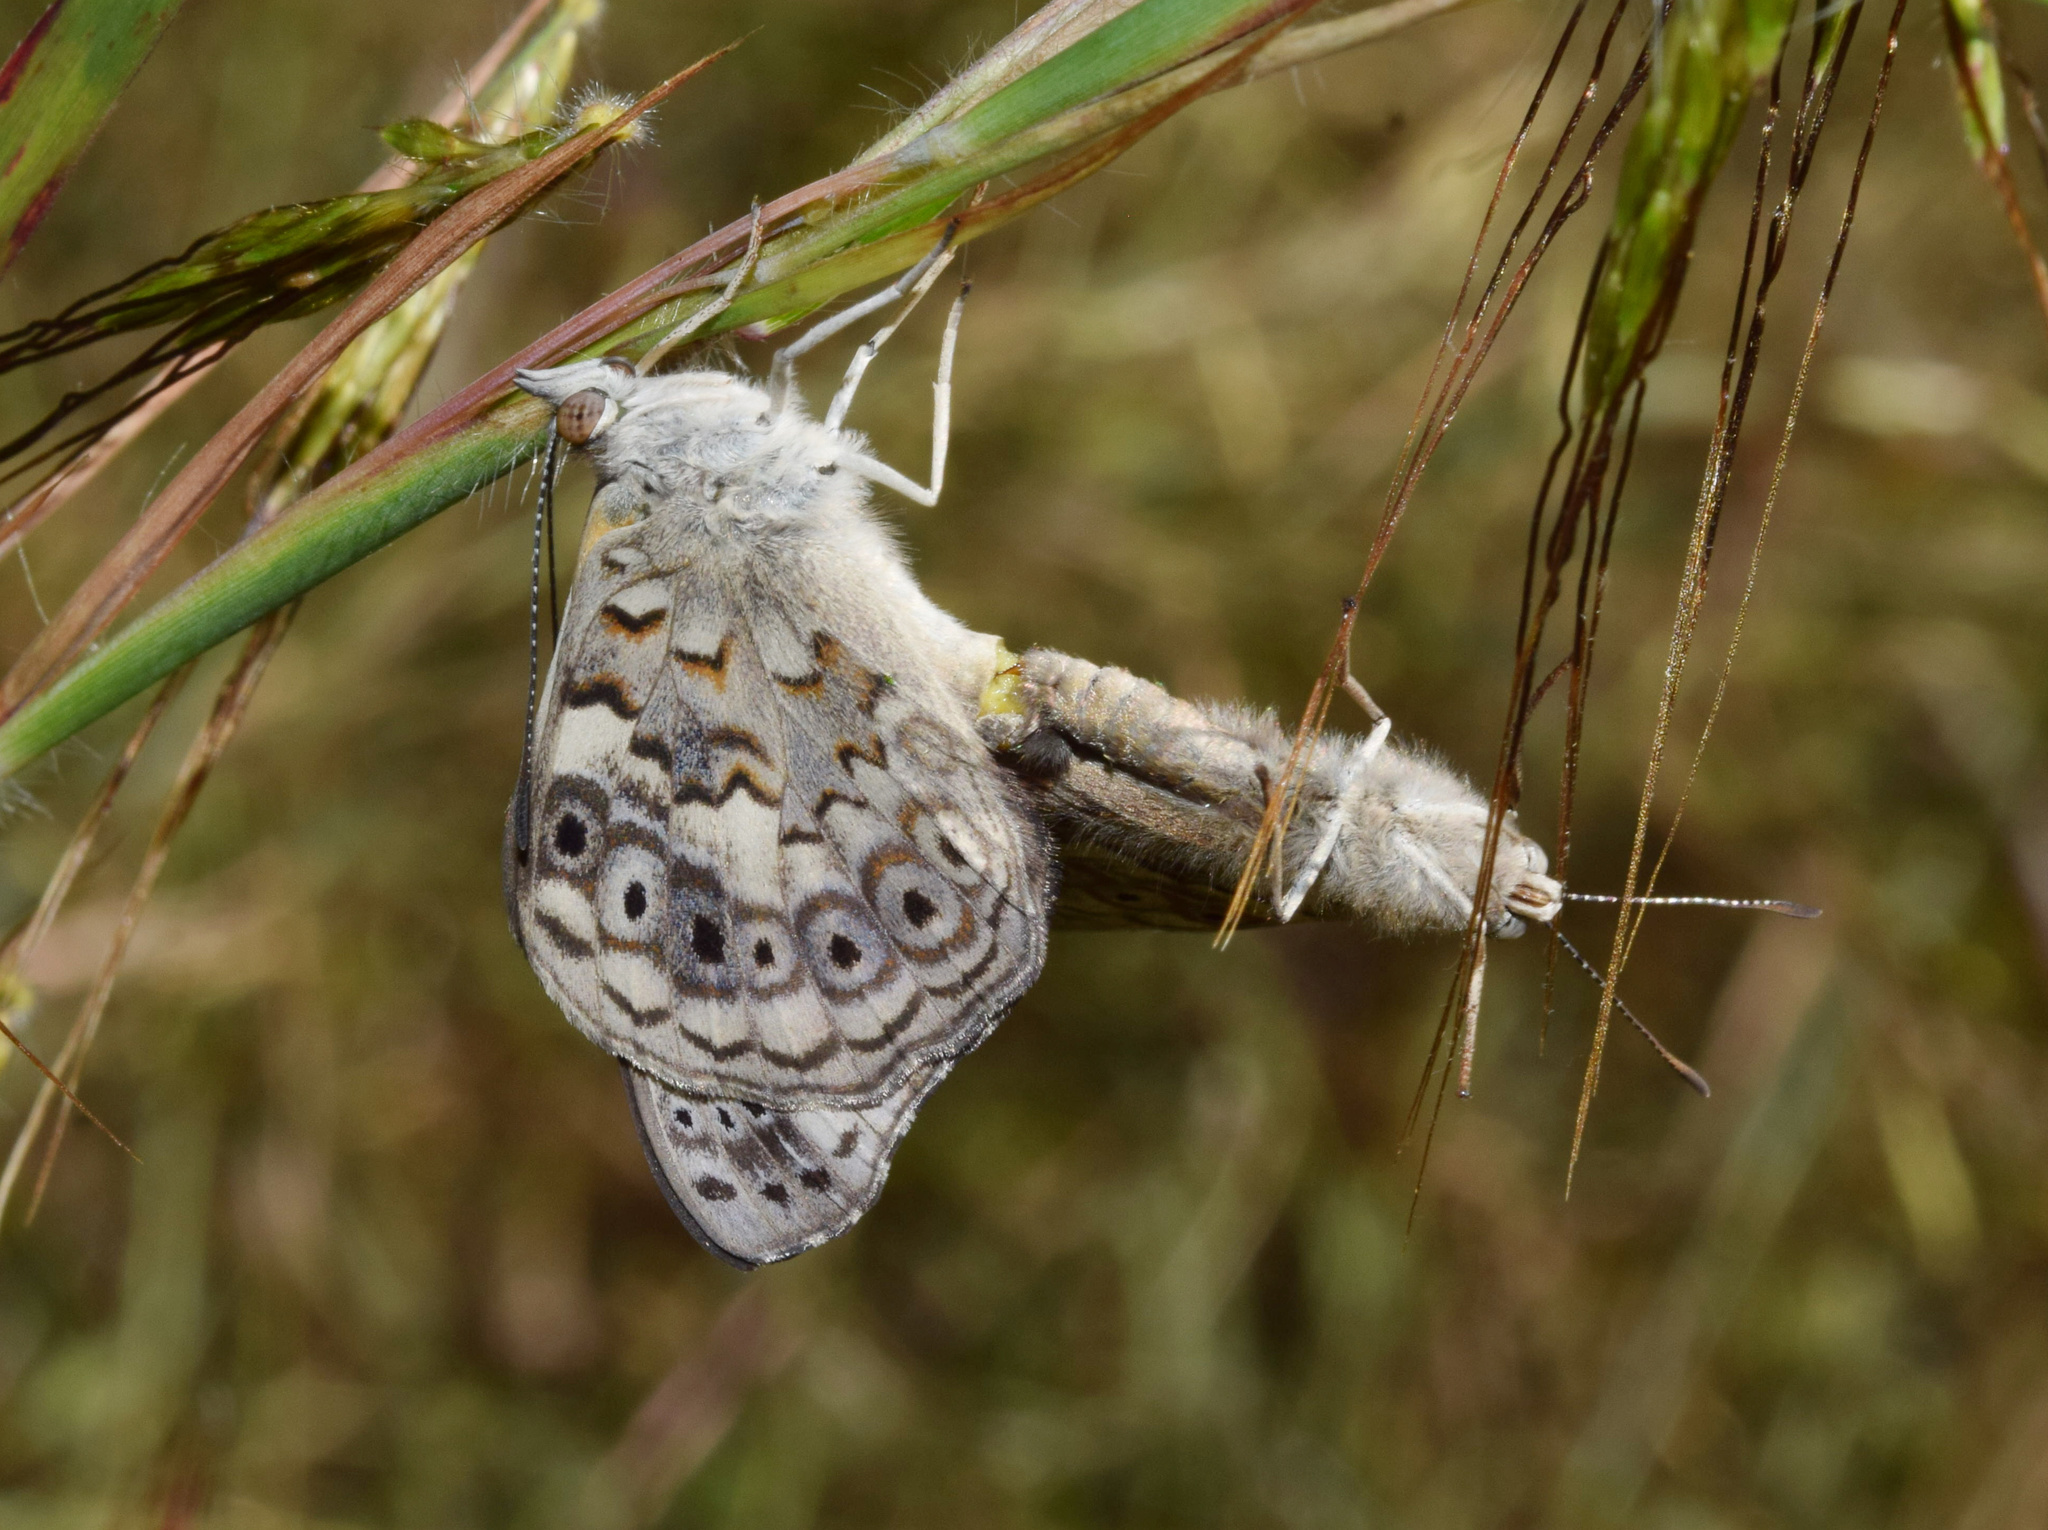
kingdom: Animalia
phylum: Arthropoda
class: Insecta
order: Lepidoptera
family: Nymphalidae
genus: Asterope
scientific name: Asterope boisduvali
